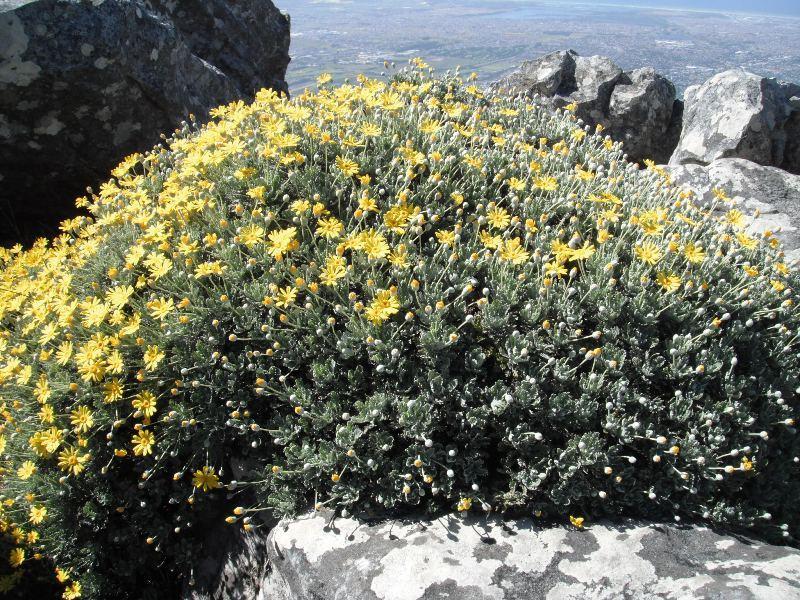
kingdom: Plantae
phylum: Tracheophyta
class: Magnoliopsida
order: Asterales
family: Asteraceae
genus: Euryops
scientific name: Euryops pectinatus
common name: Gray-leaf euryops
